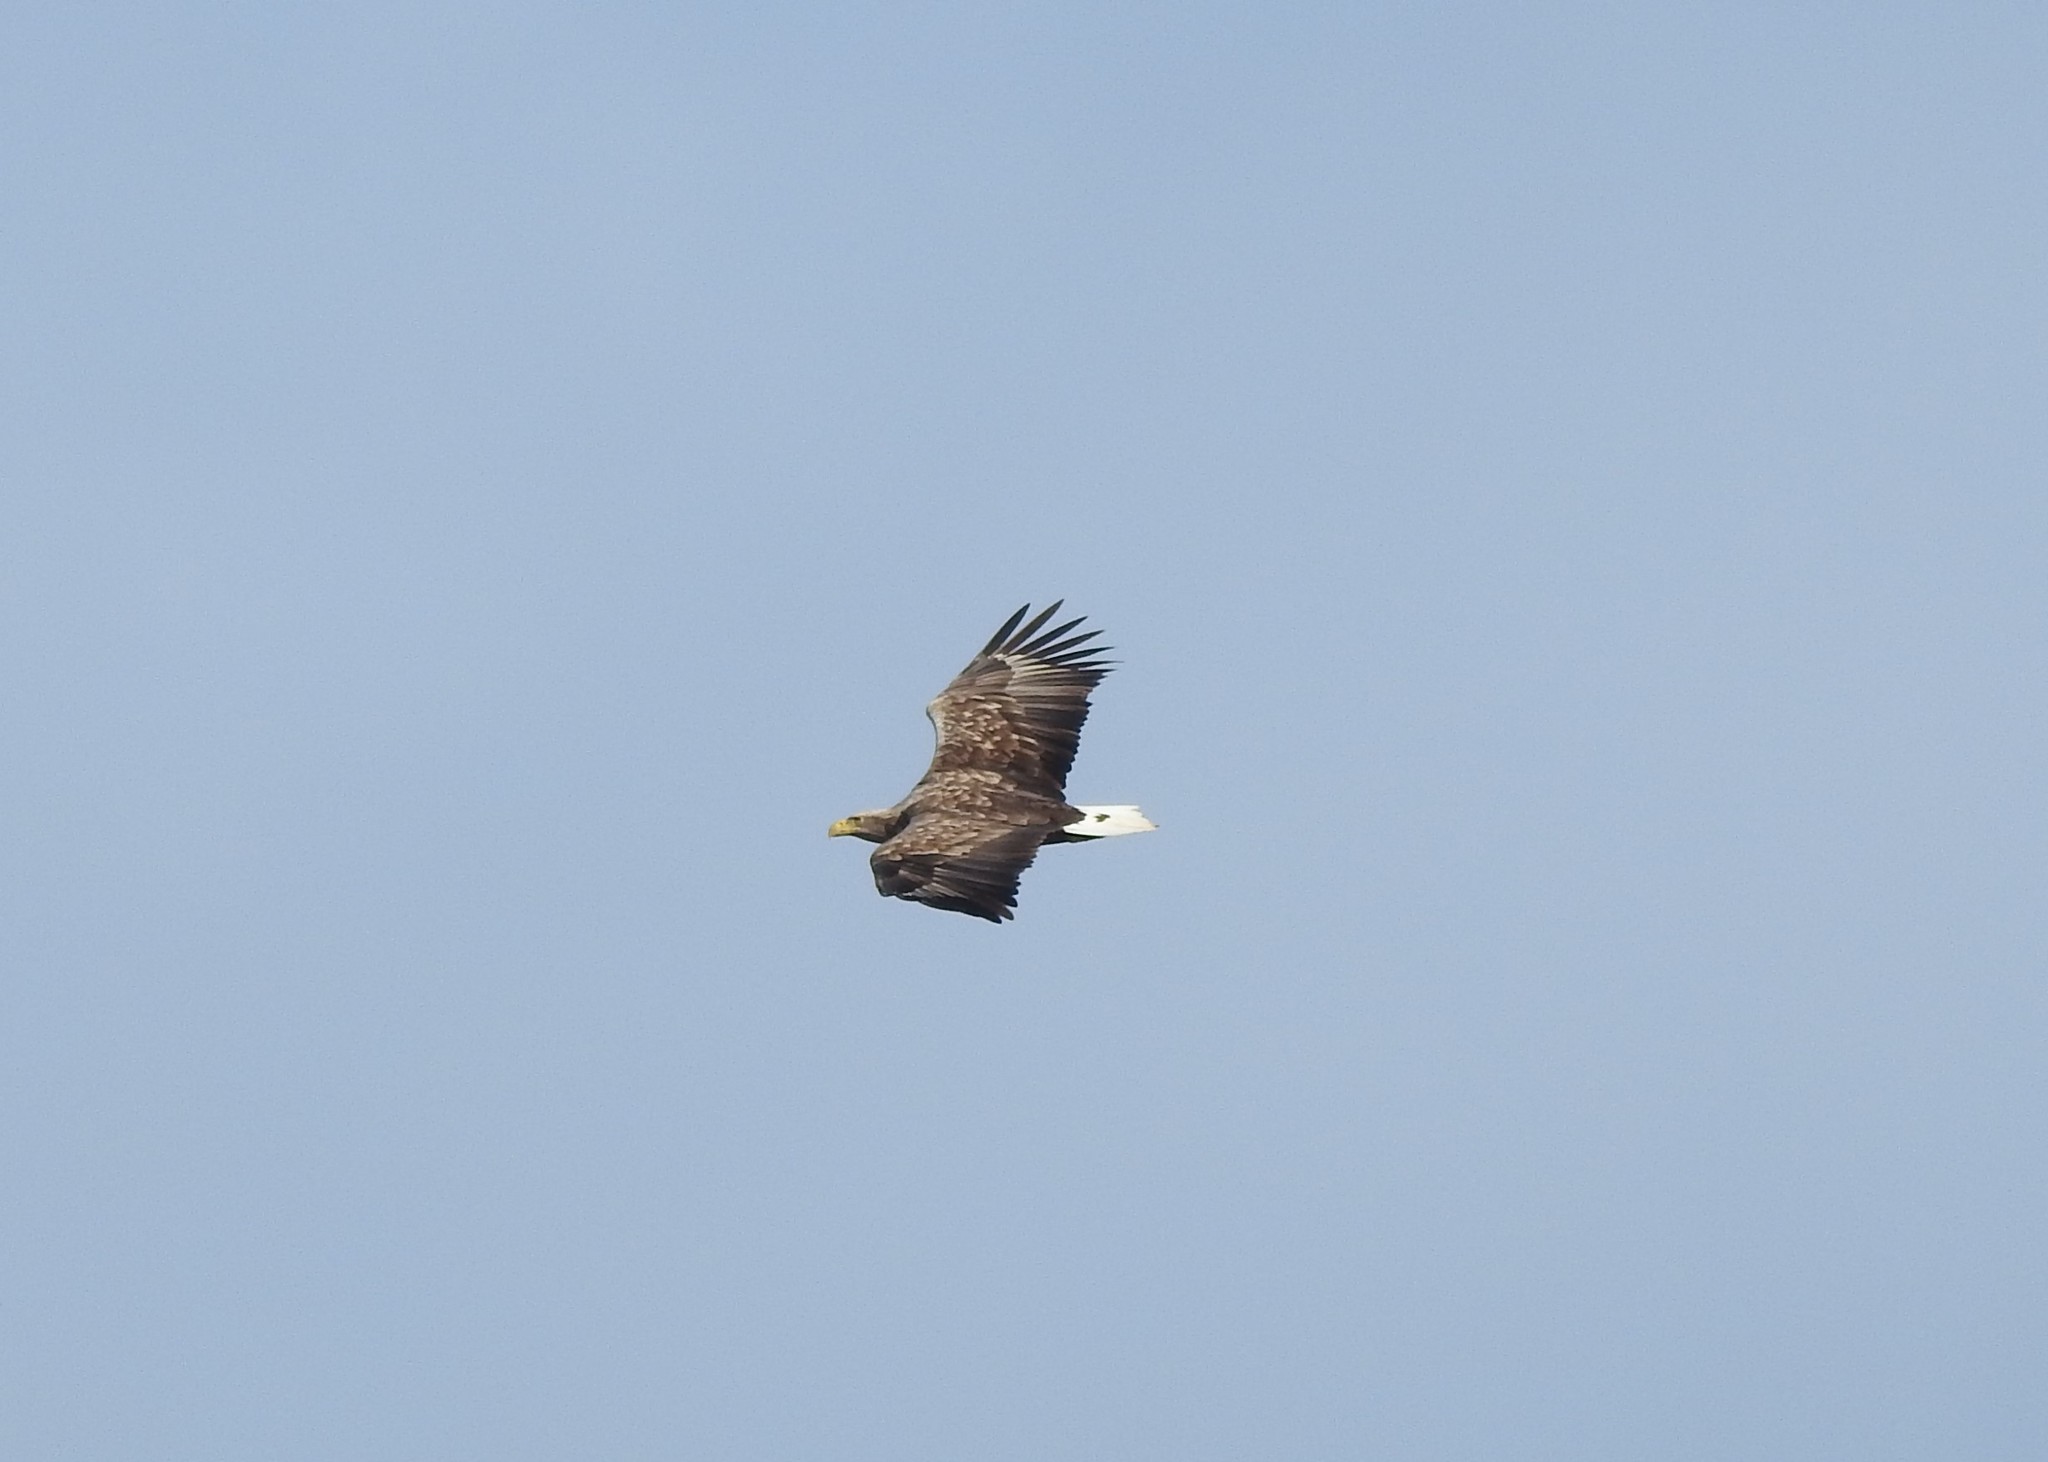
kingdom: Animalia
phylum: Chordata
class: Aves
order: Accipitriformes
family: Accipitridae
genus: Haliaeetus
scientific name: Haliaeetus albicilla
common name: White-tailed eagle
